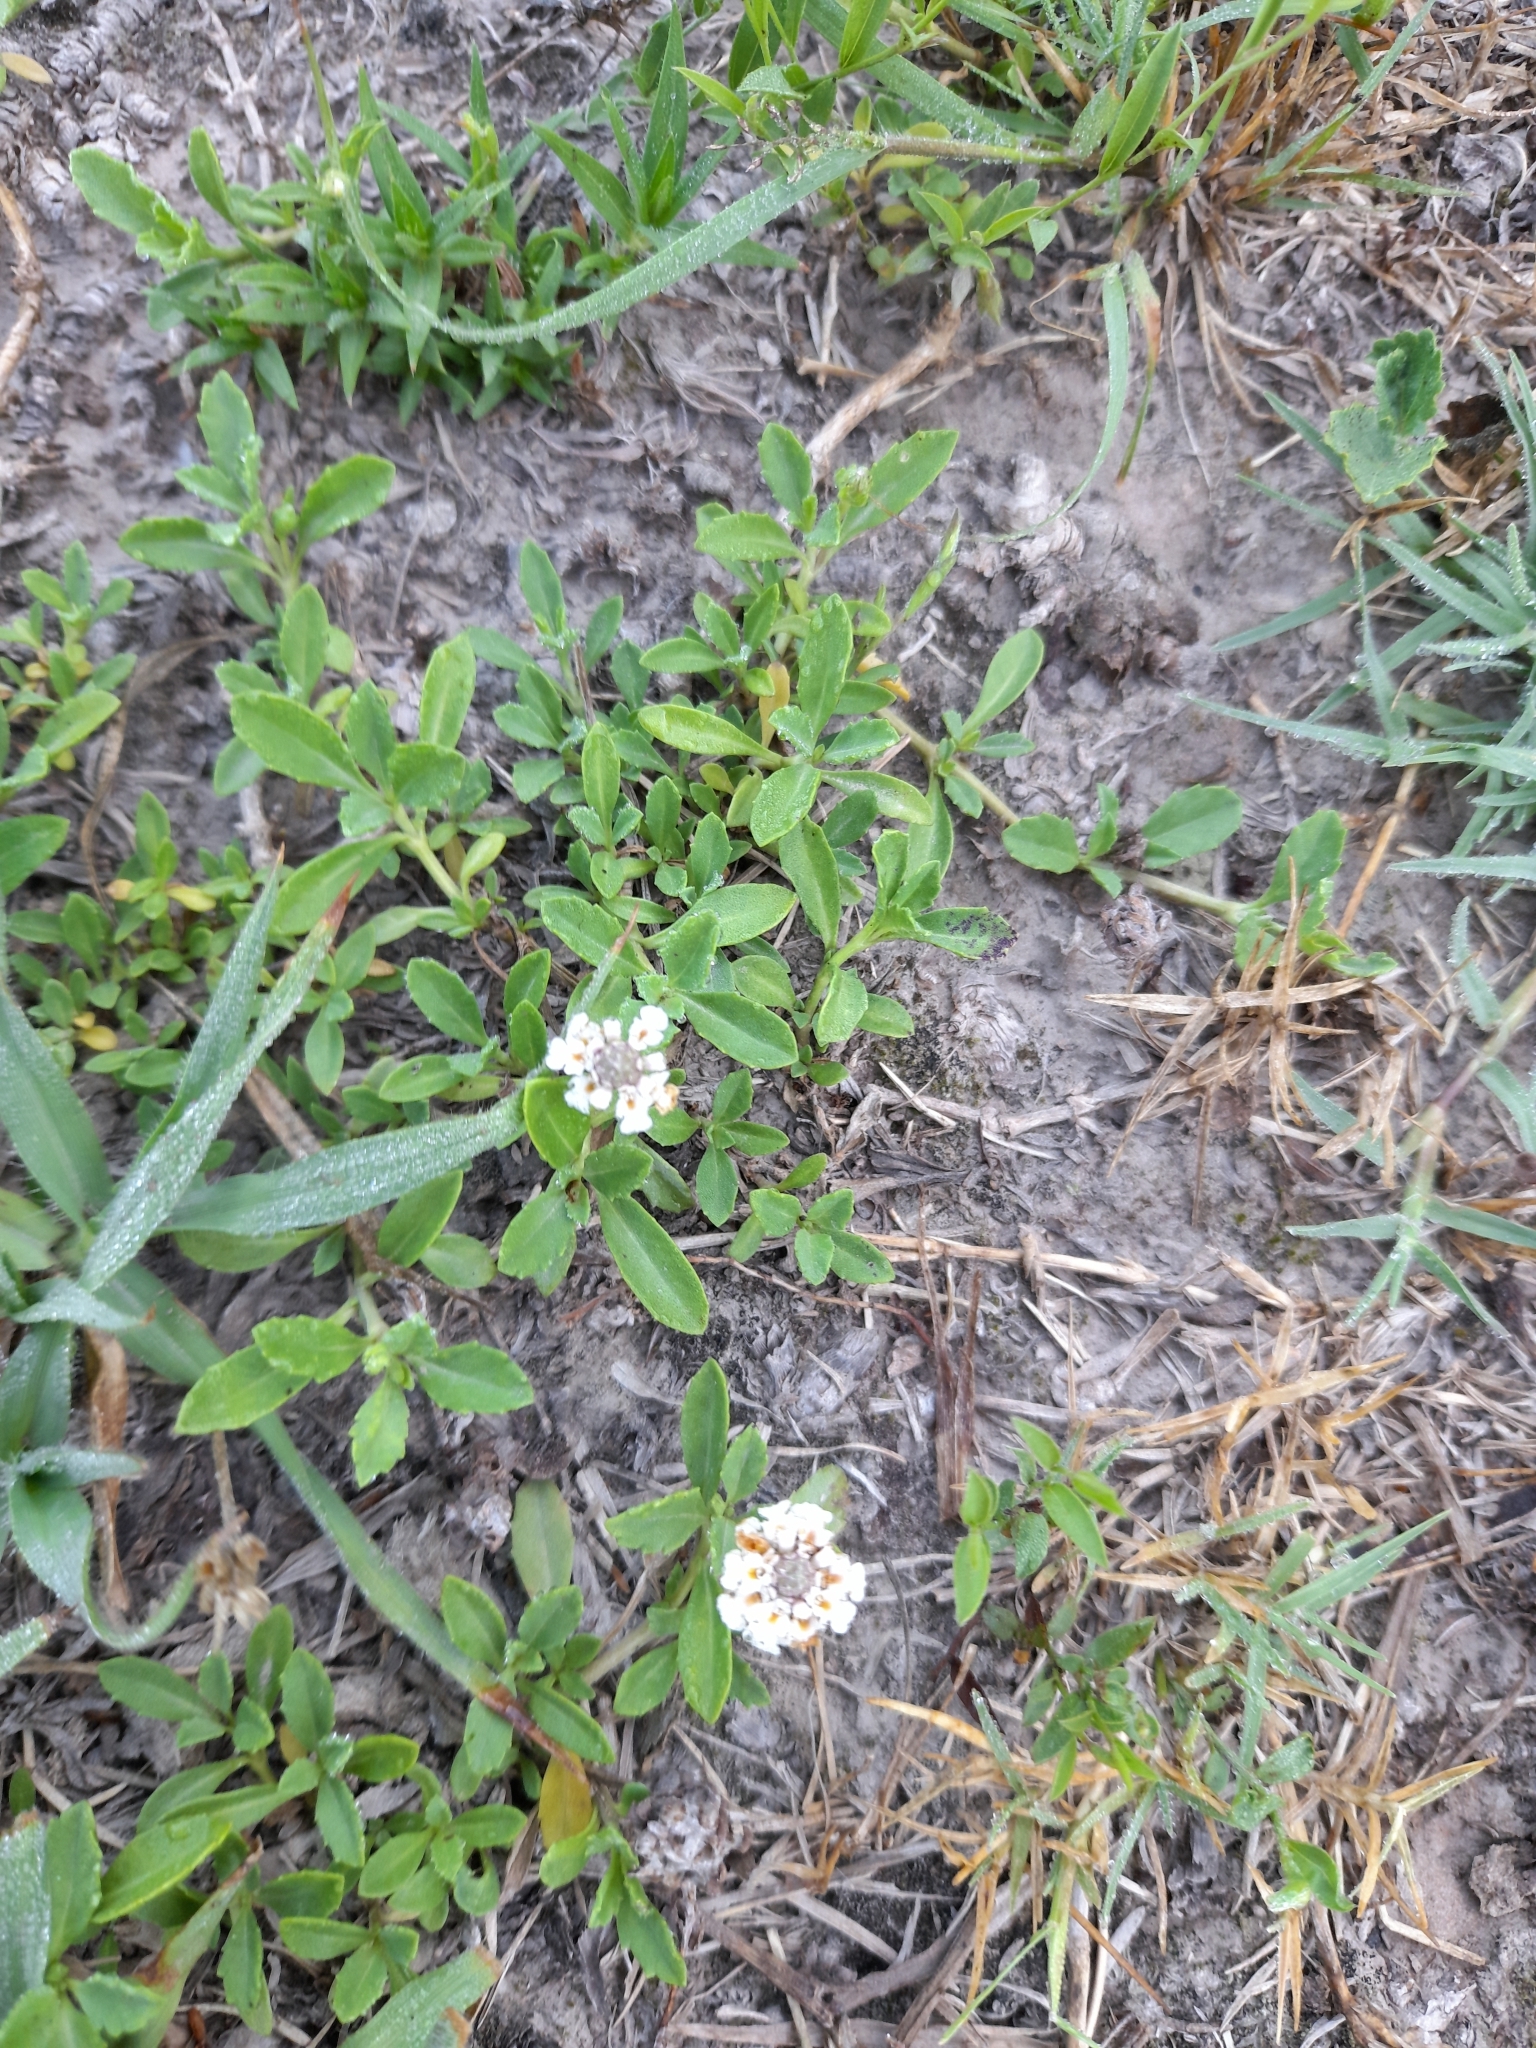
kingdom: Plantae
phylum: Tracheophyta
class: Magnoliopsida
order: Lamiales
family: Verbenaceae
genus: Phyla
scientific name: Phyla nodiflora
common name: Frogfruit
